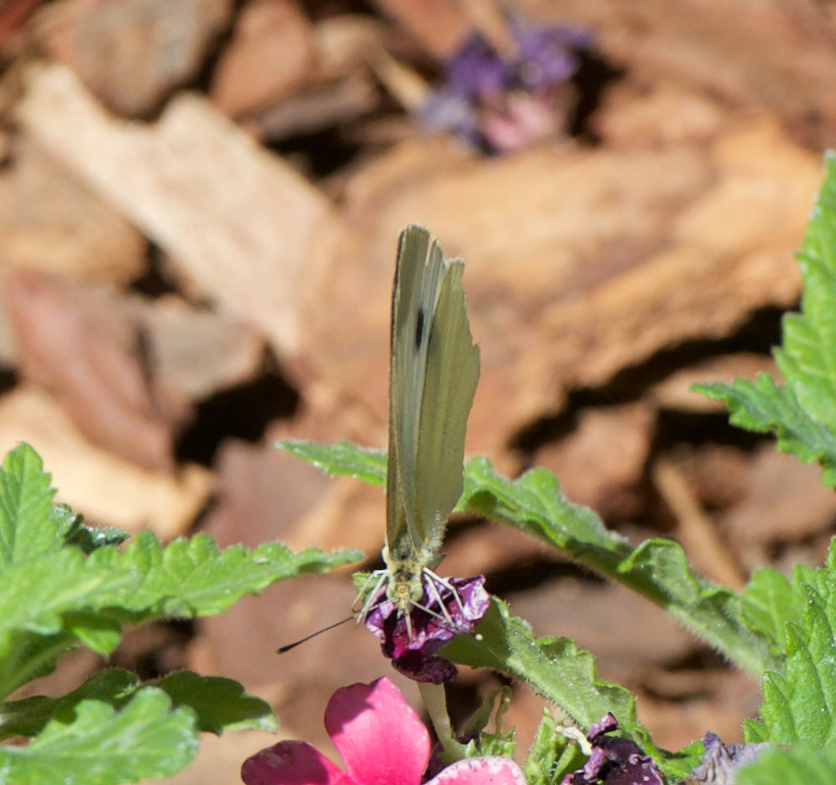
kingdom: Animalia
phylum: Arthropoda
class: Insecta
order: Lepidoptera
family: Pieridae
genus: Pieris
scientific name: Pieris rapae
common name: Small white
